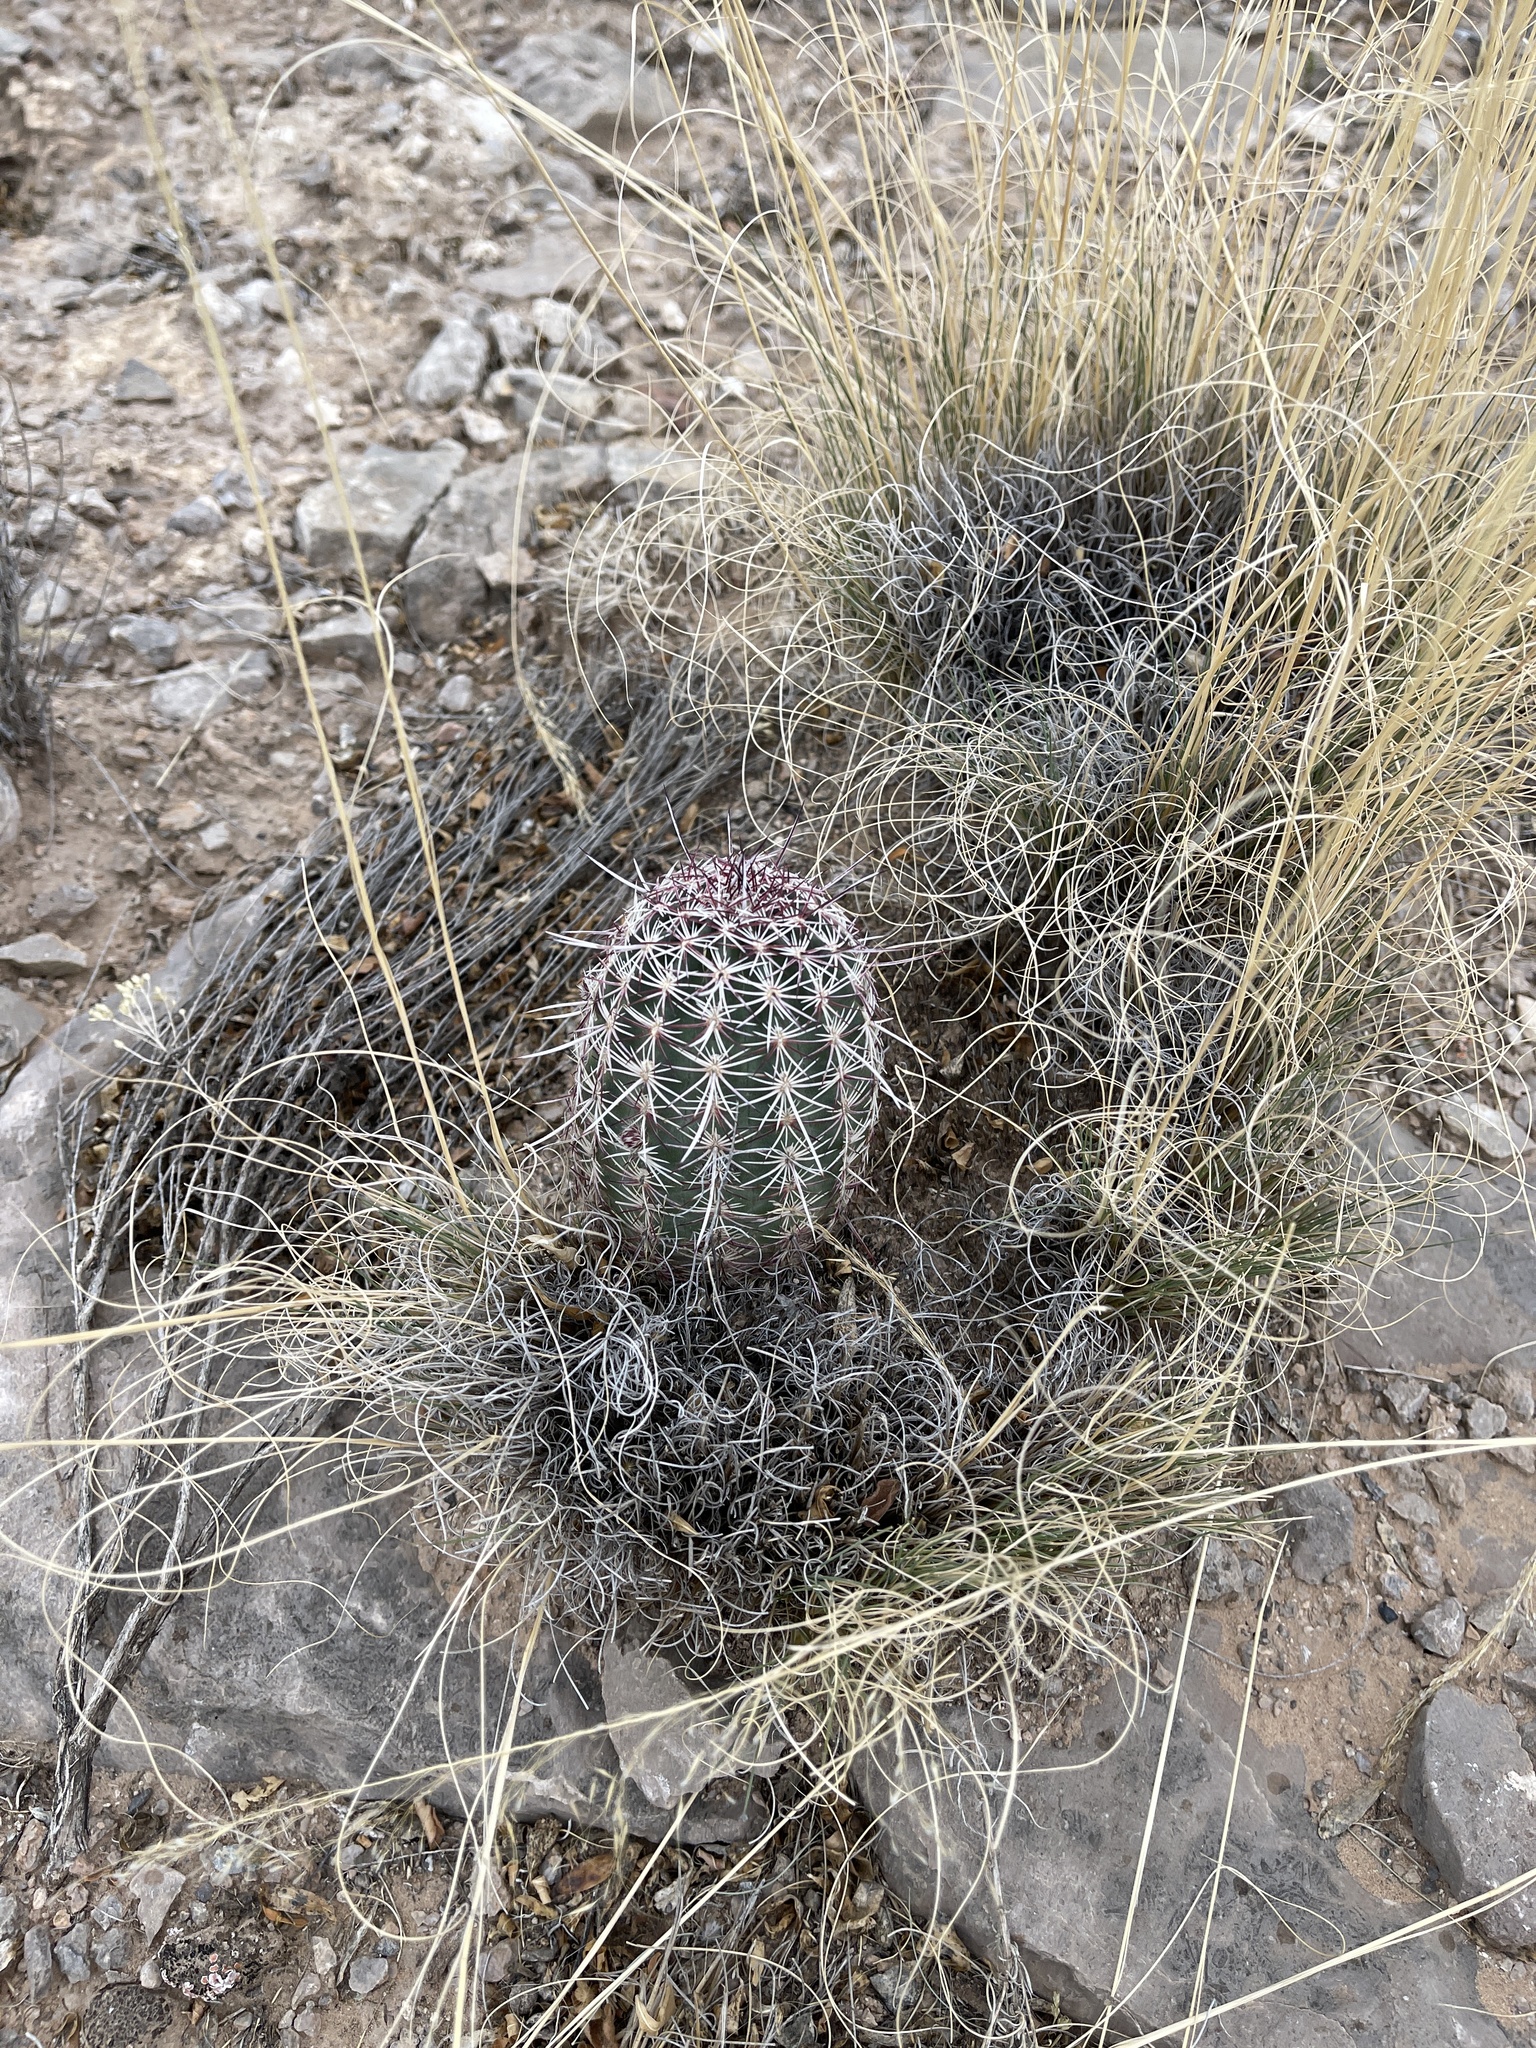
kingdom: Plantae
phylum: Tracheophyta
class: Magnoliopsida
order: Caryophyllales
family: Cactaceae
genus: Echinocereus
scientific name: Echinocereus viridiflorus
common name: Nylon hedgehog cactus
